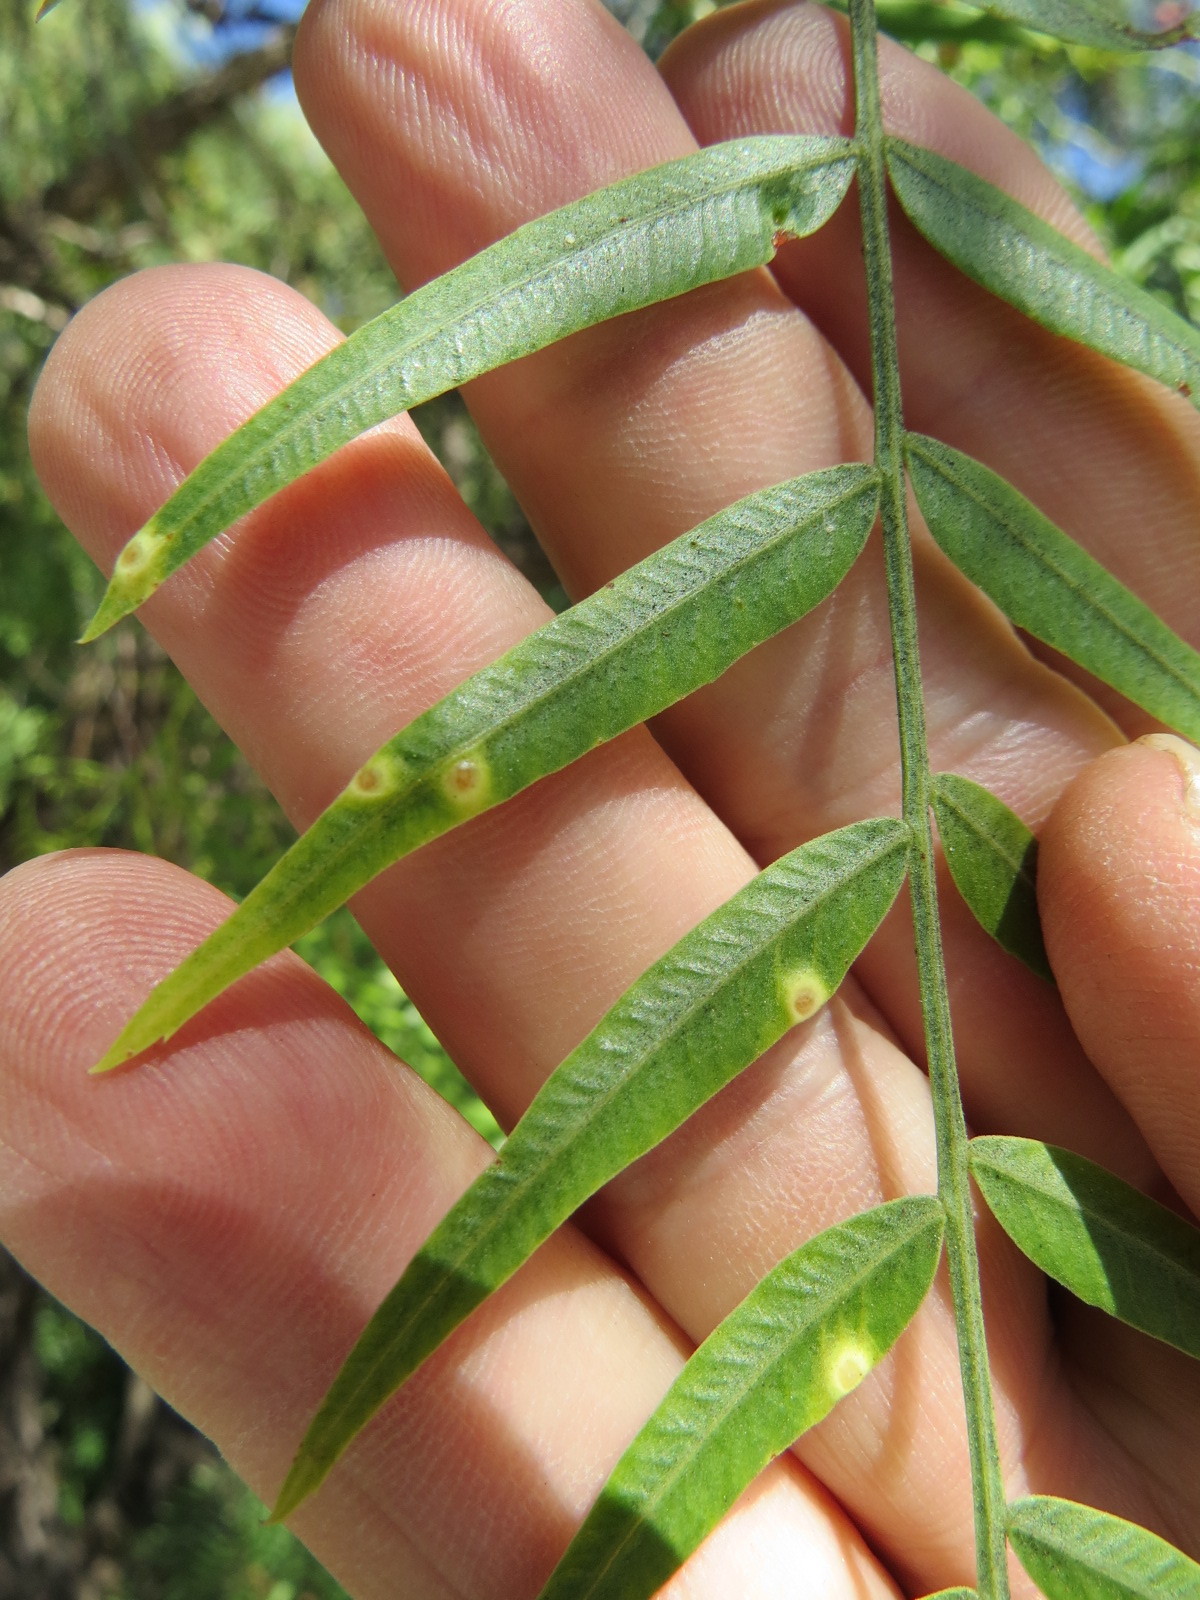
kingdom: Animalia
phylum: Arthropoda
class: Insecta
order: Hemiptera
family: Calophyidae
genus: Calophya
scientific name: Calophya schini
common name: Pepper tree psyllid
